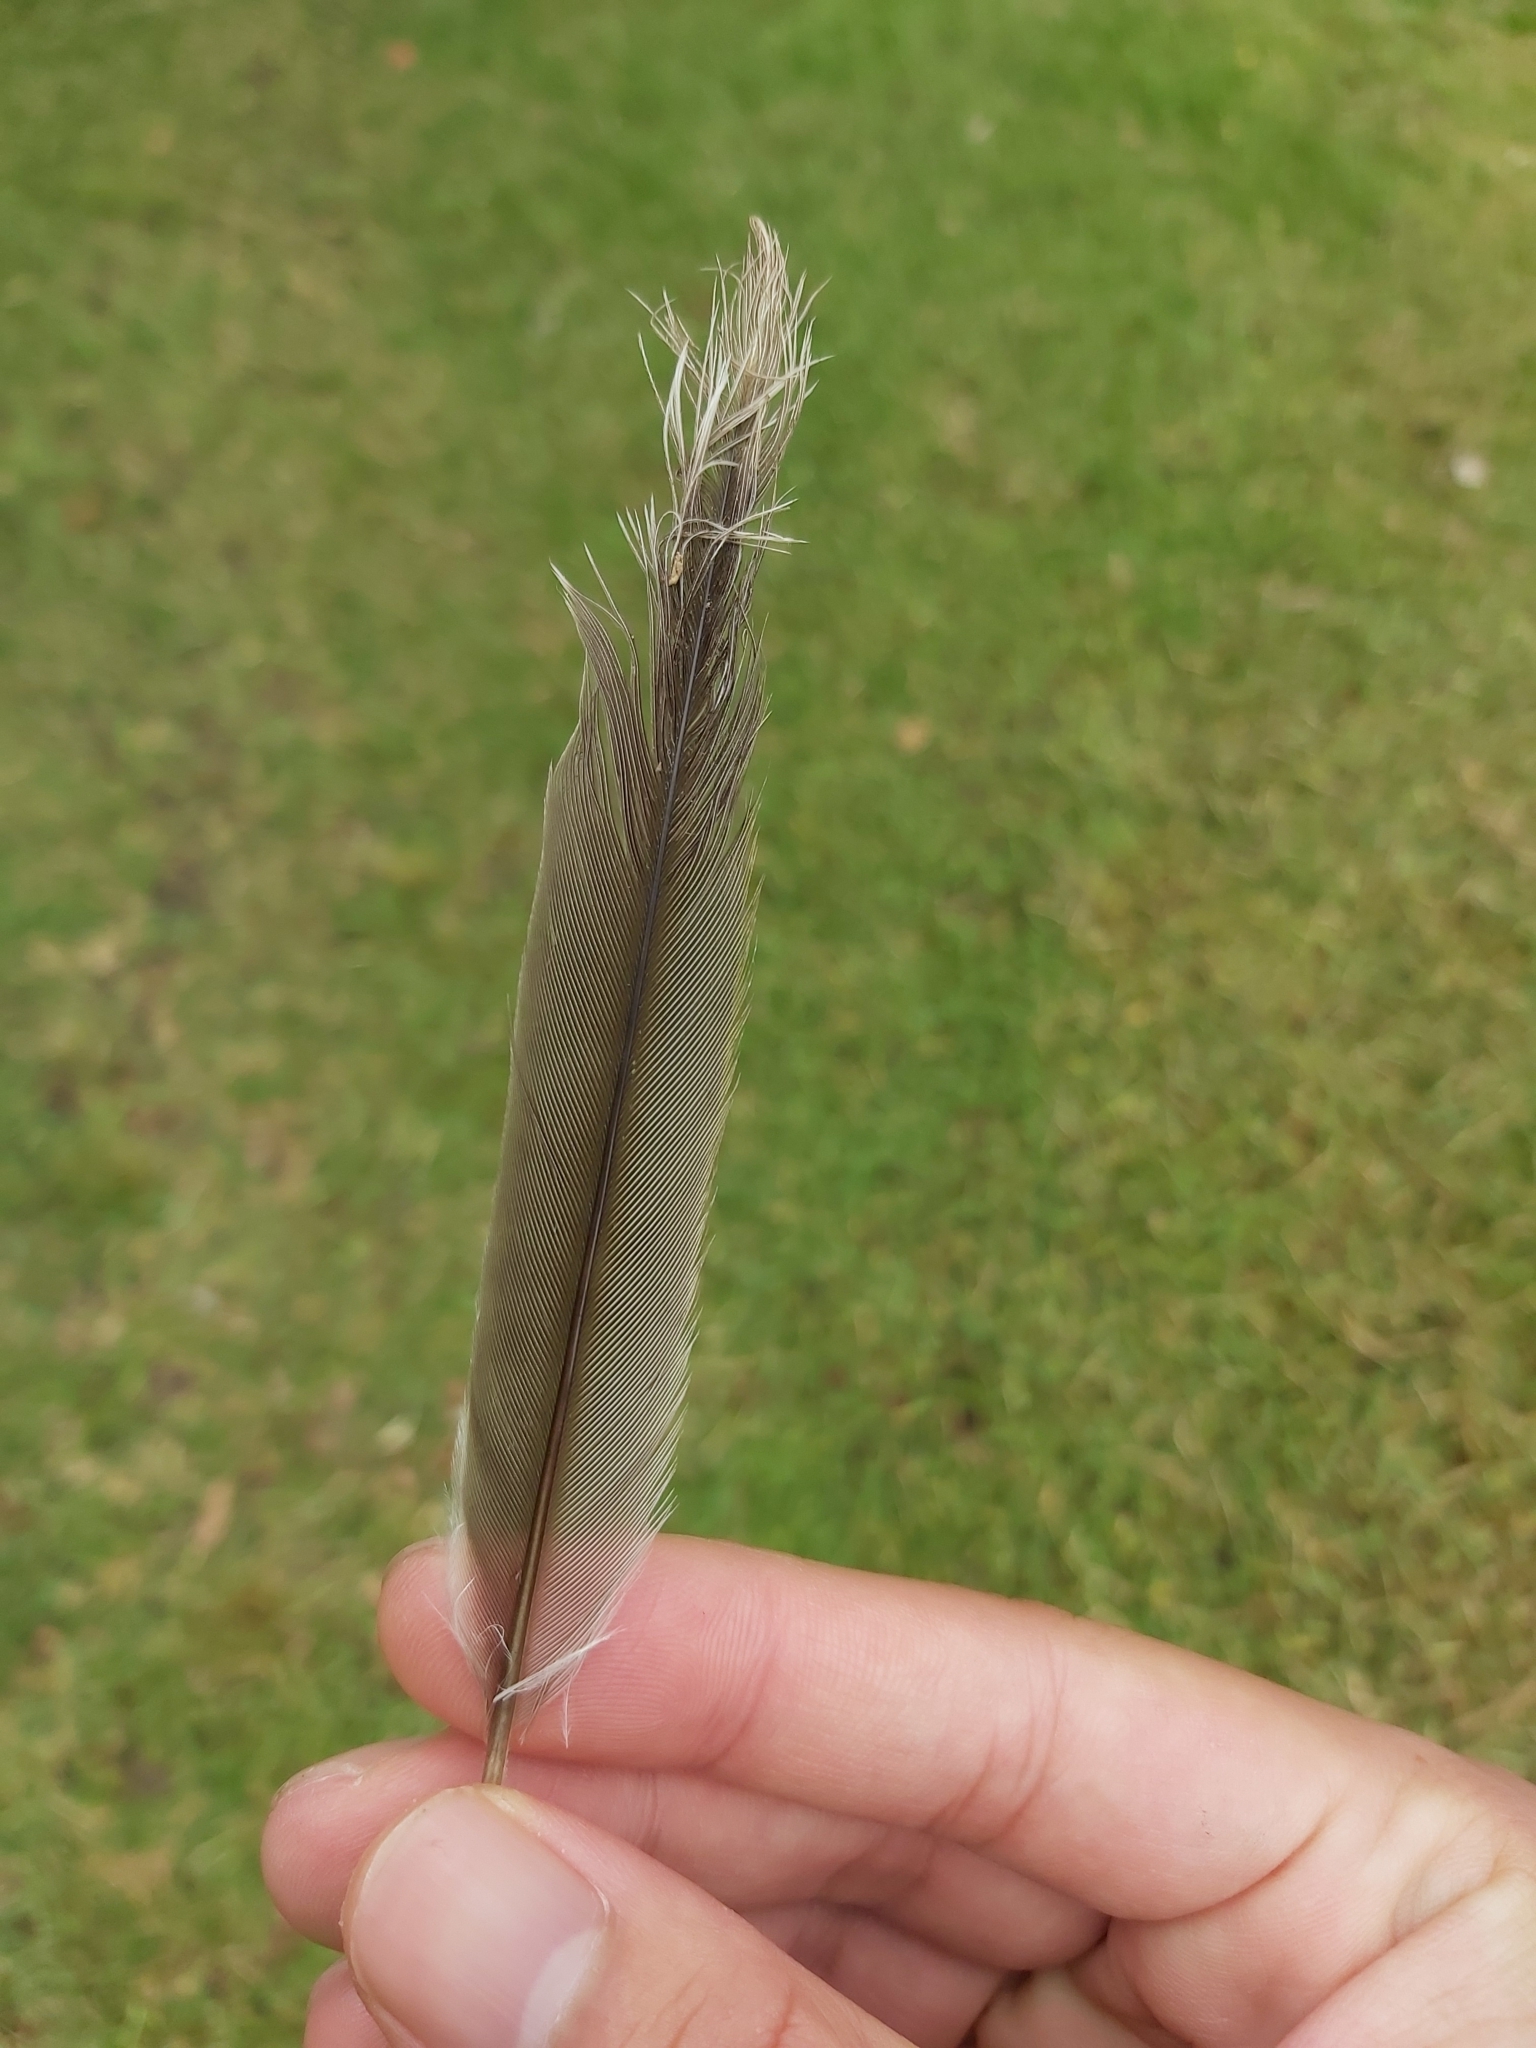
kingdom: Animalia
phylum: Chordata
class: Aves
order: Passeriformes
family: Meliphagidae
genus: Manorina
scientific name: Manorina melanocephala
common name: Noisy miner
